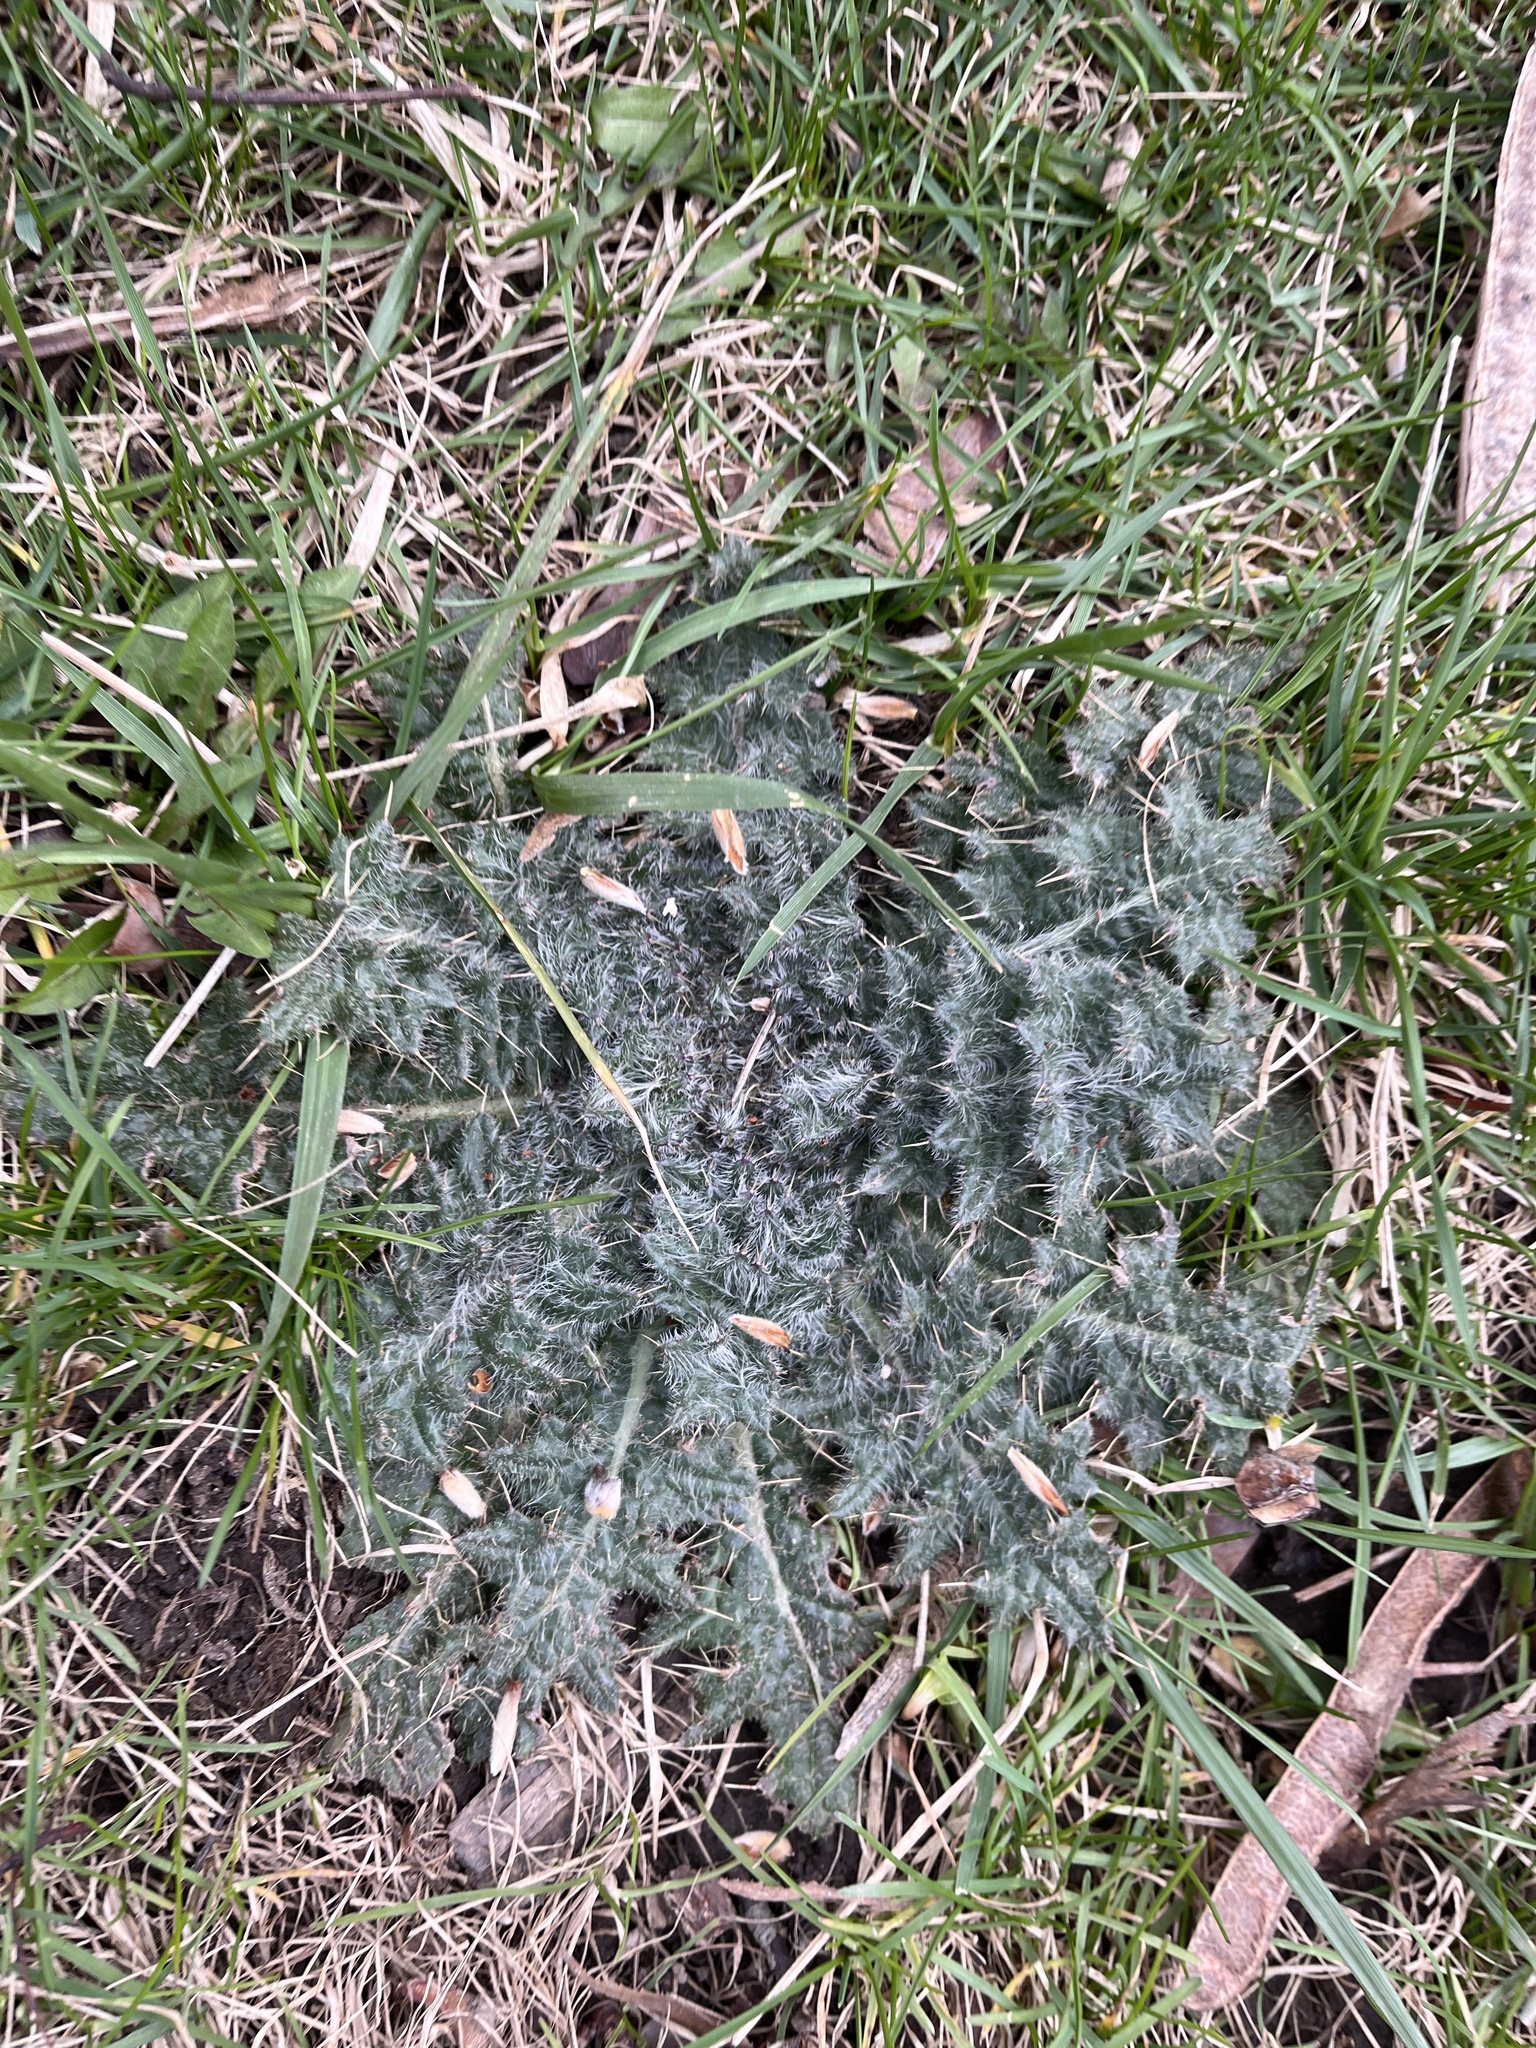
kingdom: Plantae
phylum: Tracheophyta
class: Magnoliopsida
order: Asterales
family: Asteraceae
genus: Cirsium
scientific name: Cirsium vulgare
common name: Bull thistle
